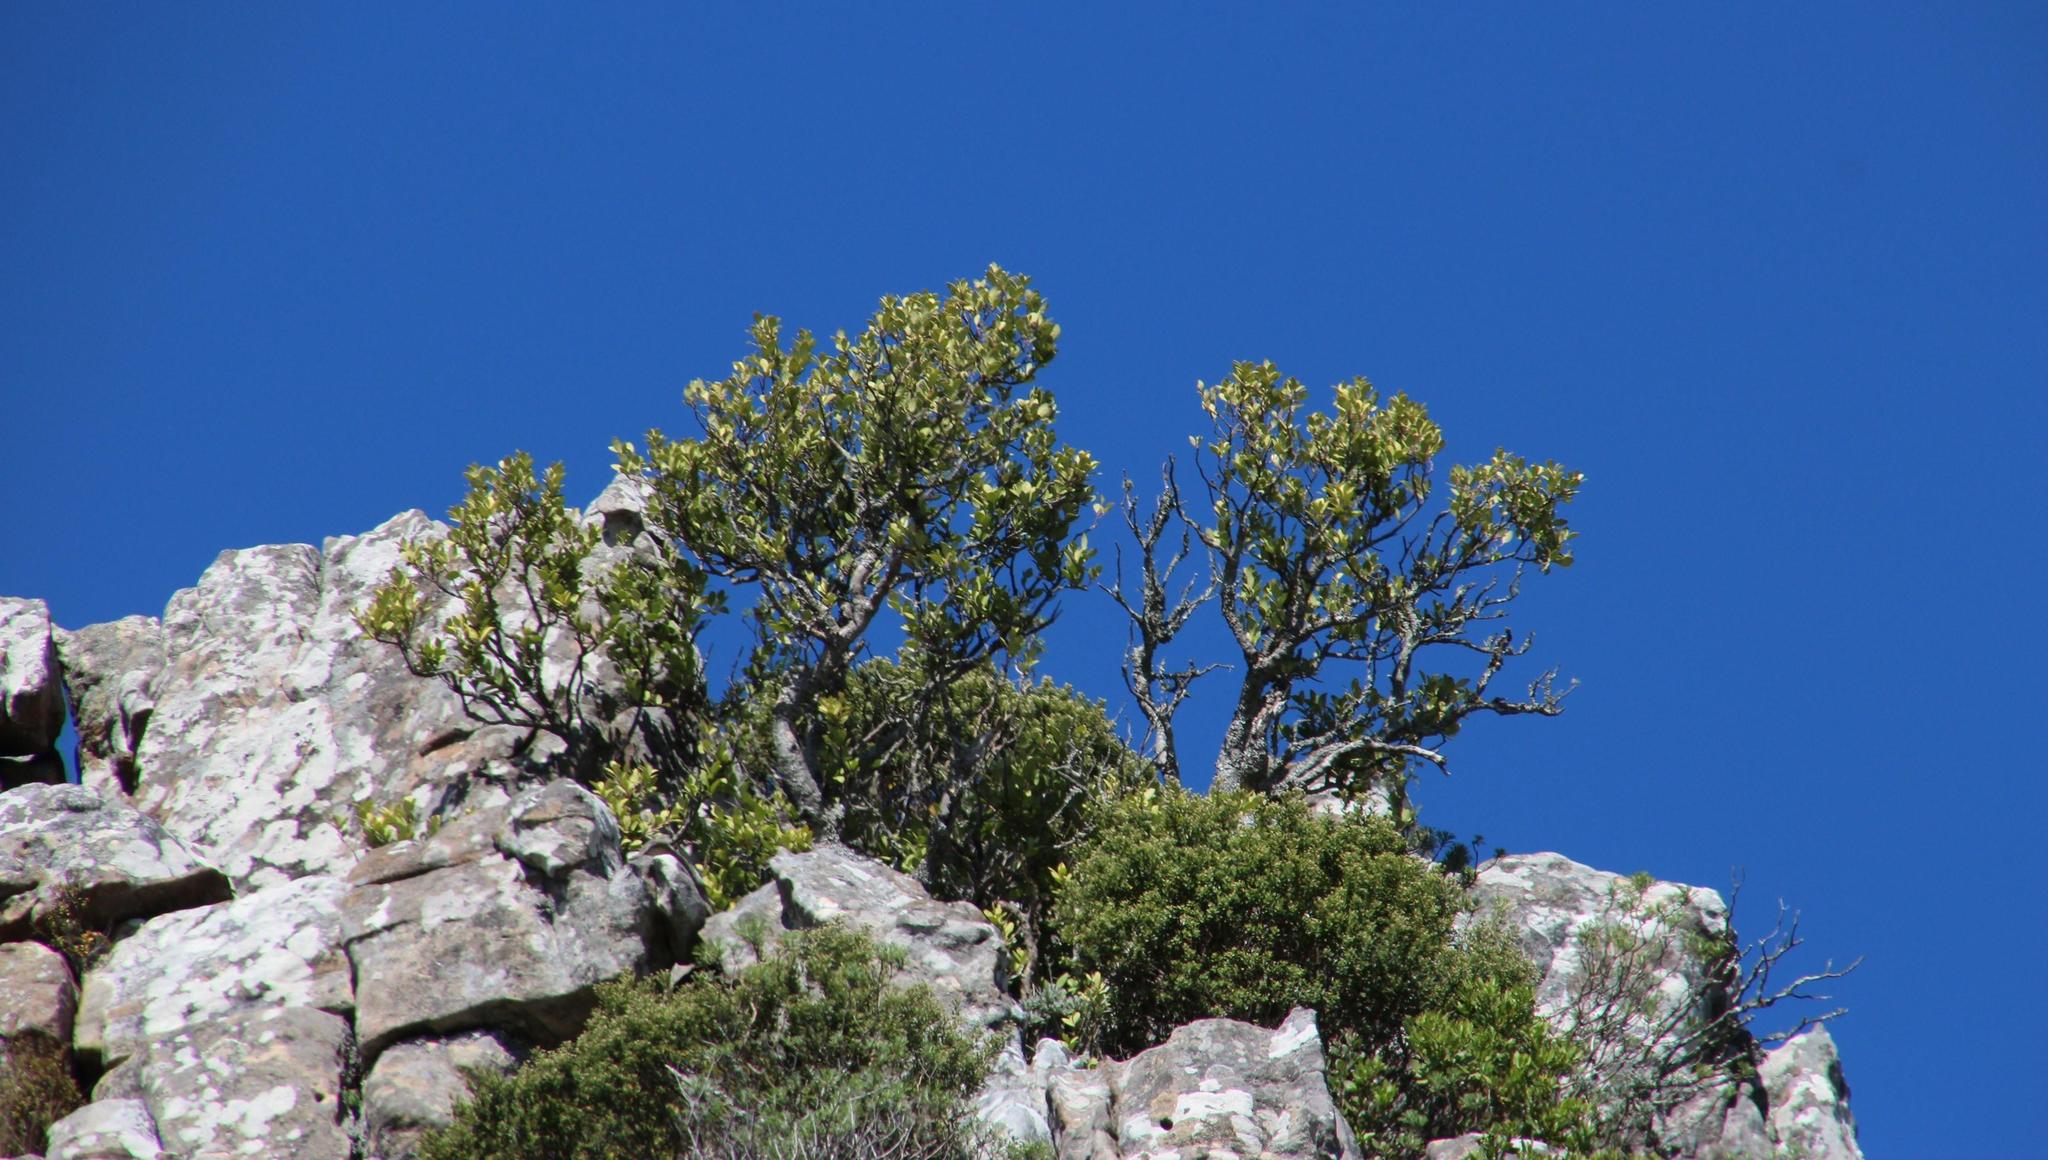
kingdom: Plantae
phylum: Tracheophyta
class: Magnoliopsida
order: Celastrales
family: Celastraceae
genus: Gymnosporia
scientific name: Gymnosporia laurina
